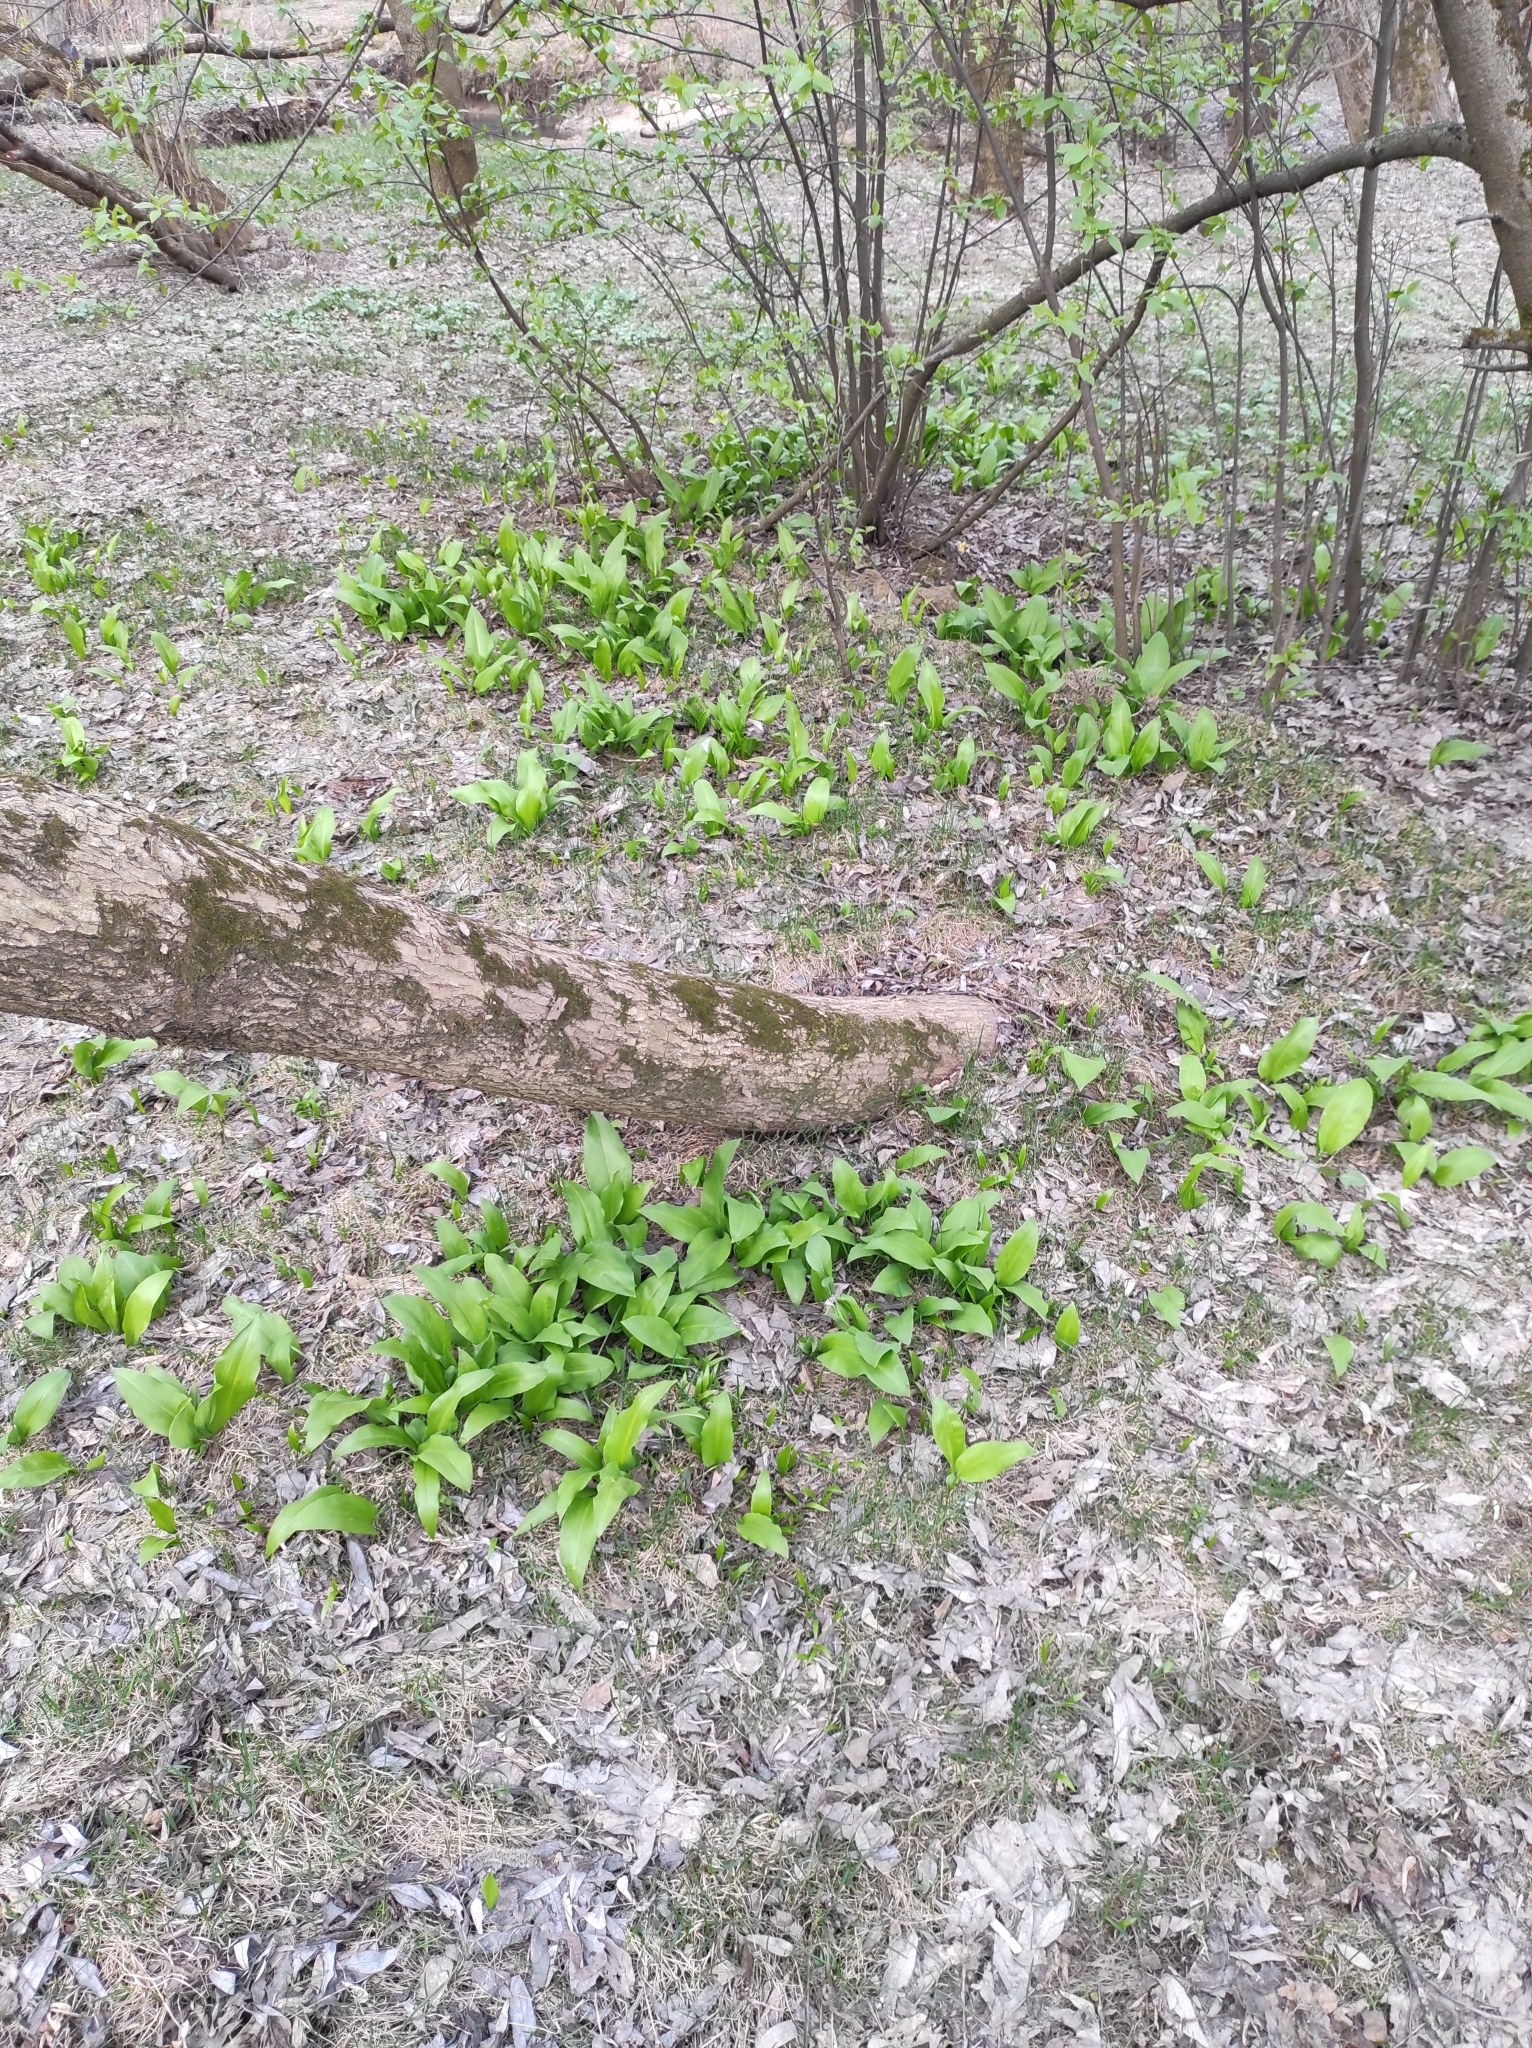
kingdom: Plantae
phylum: Tracheophyta
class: Liliopsida
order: Asparagales
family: Amaryllidaceae
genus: Allium
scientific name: Allium ursinum
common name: Ramsons
